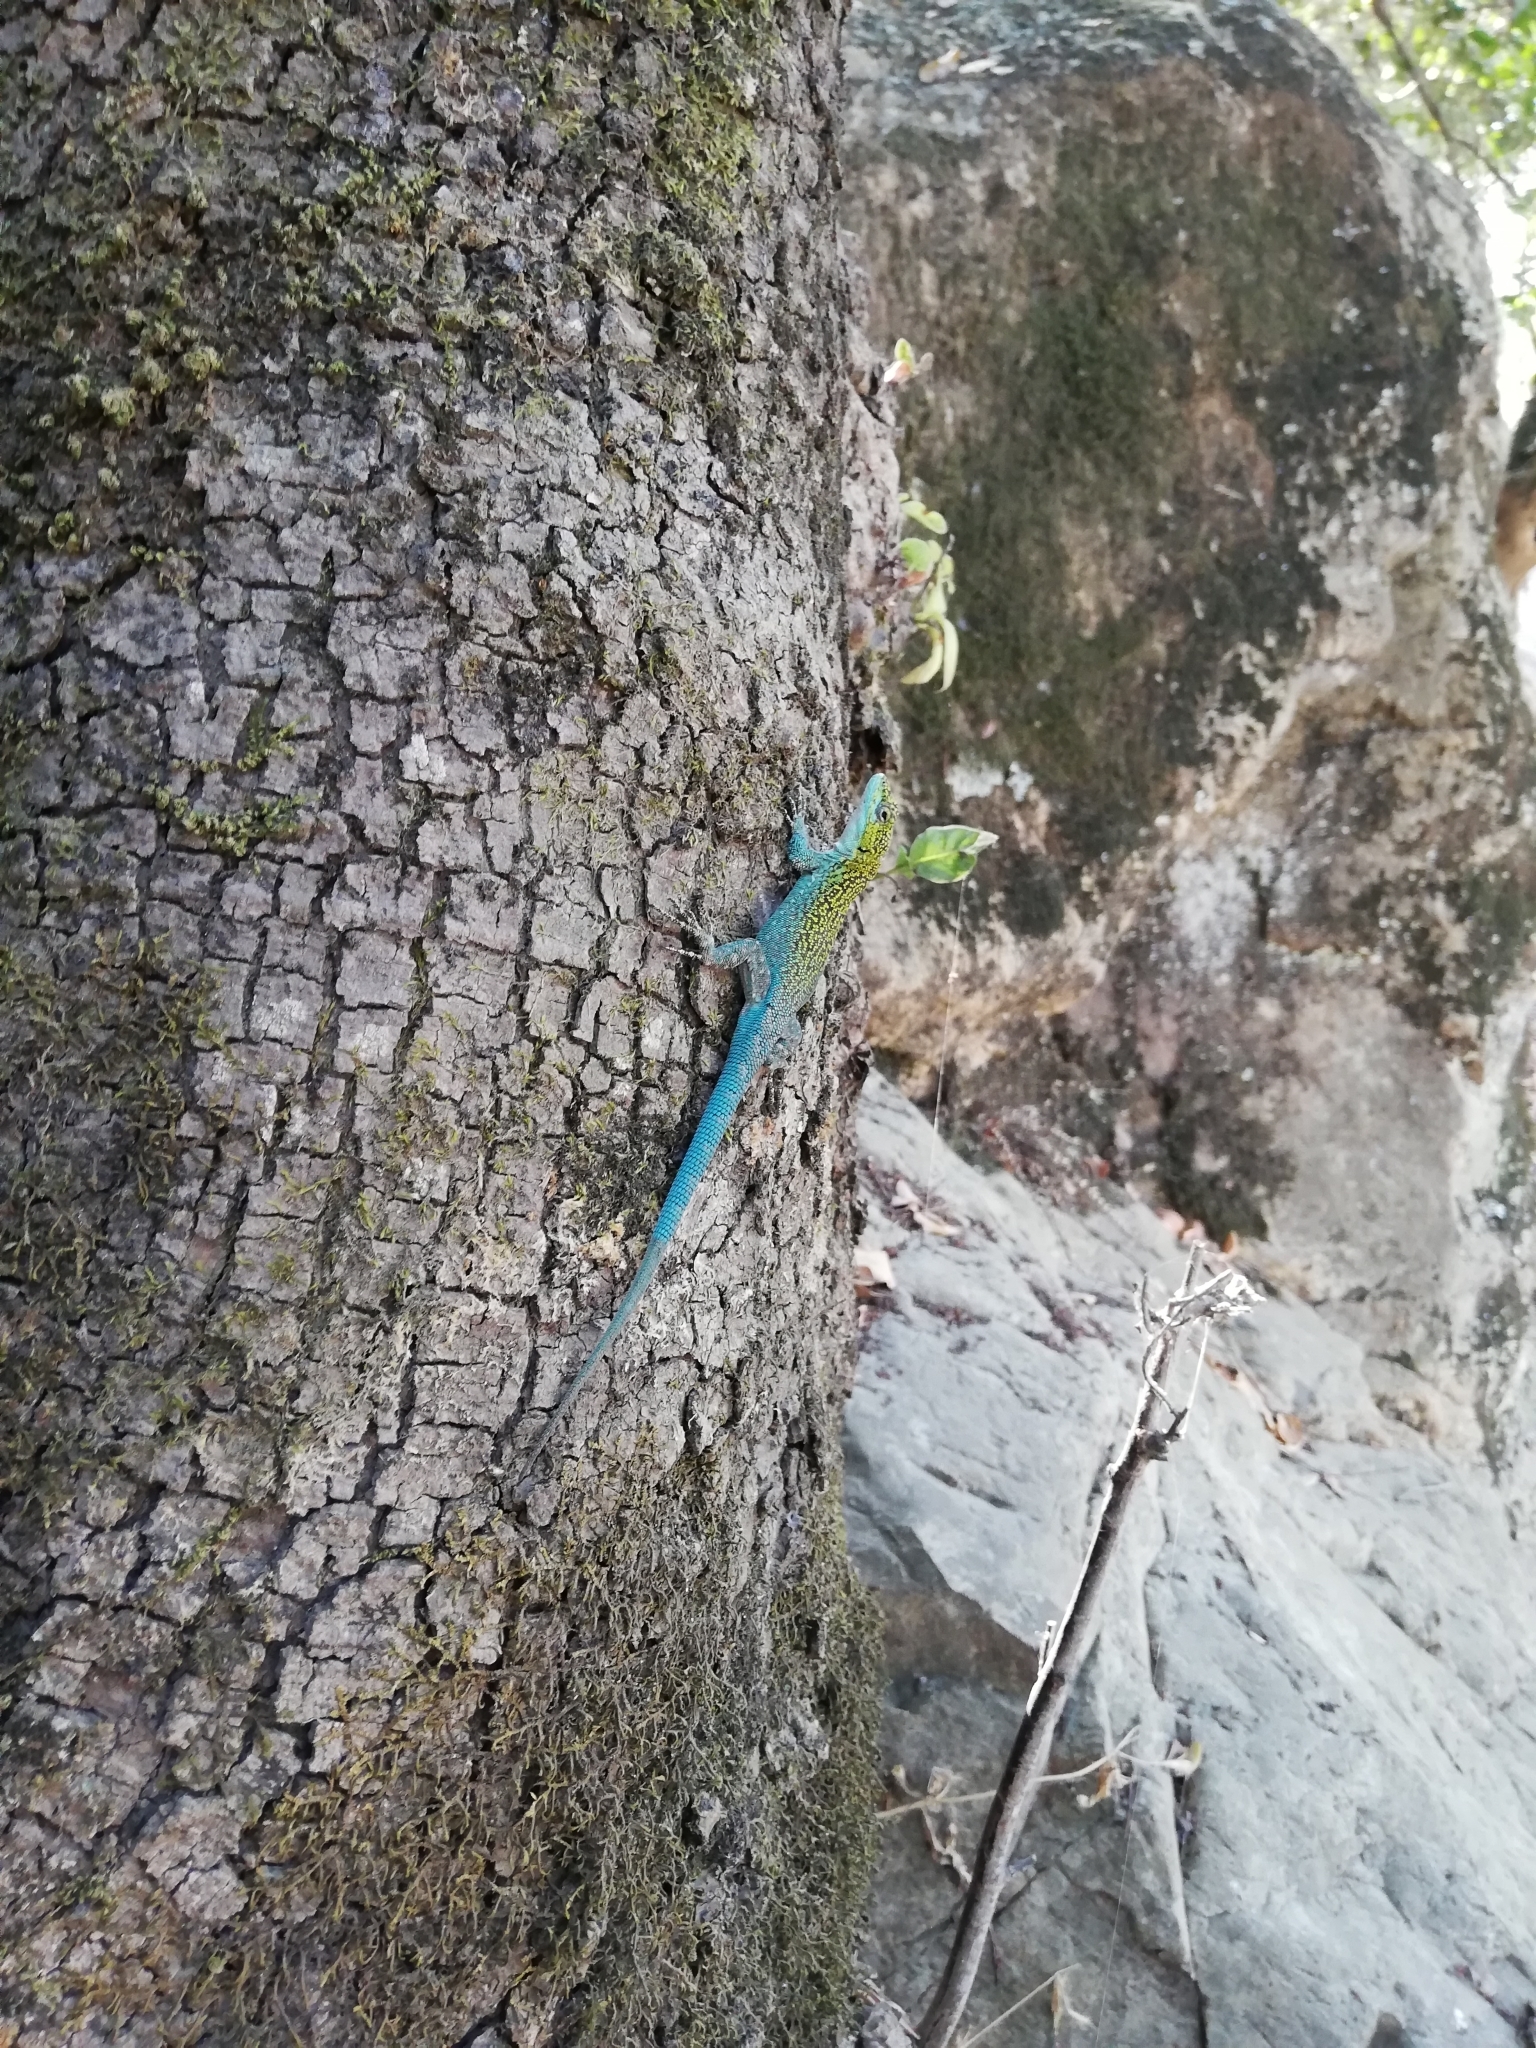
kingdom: Animalia
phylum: Chordata
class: Squamata
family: Liolaemidae
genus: Liolaemus
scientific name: Liolaemus tenuis
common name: Thin tree iguana
